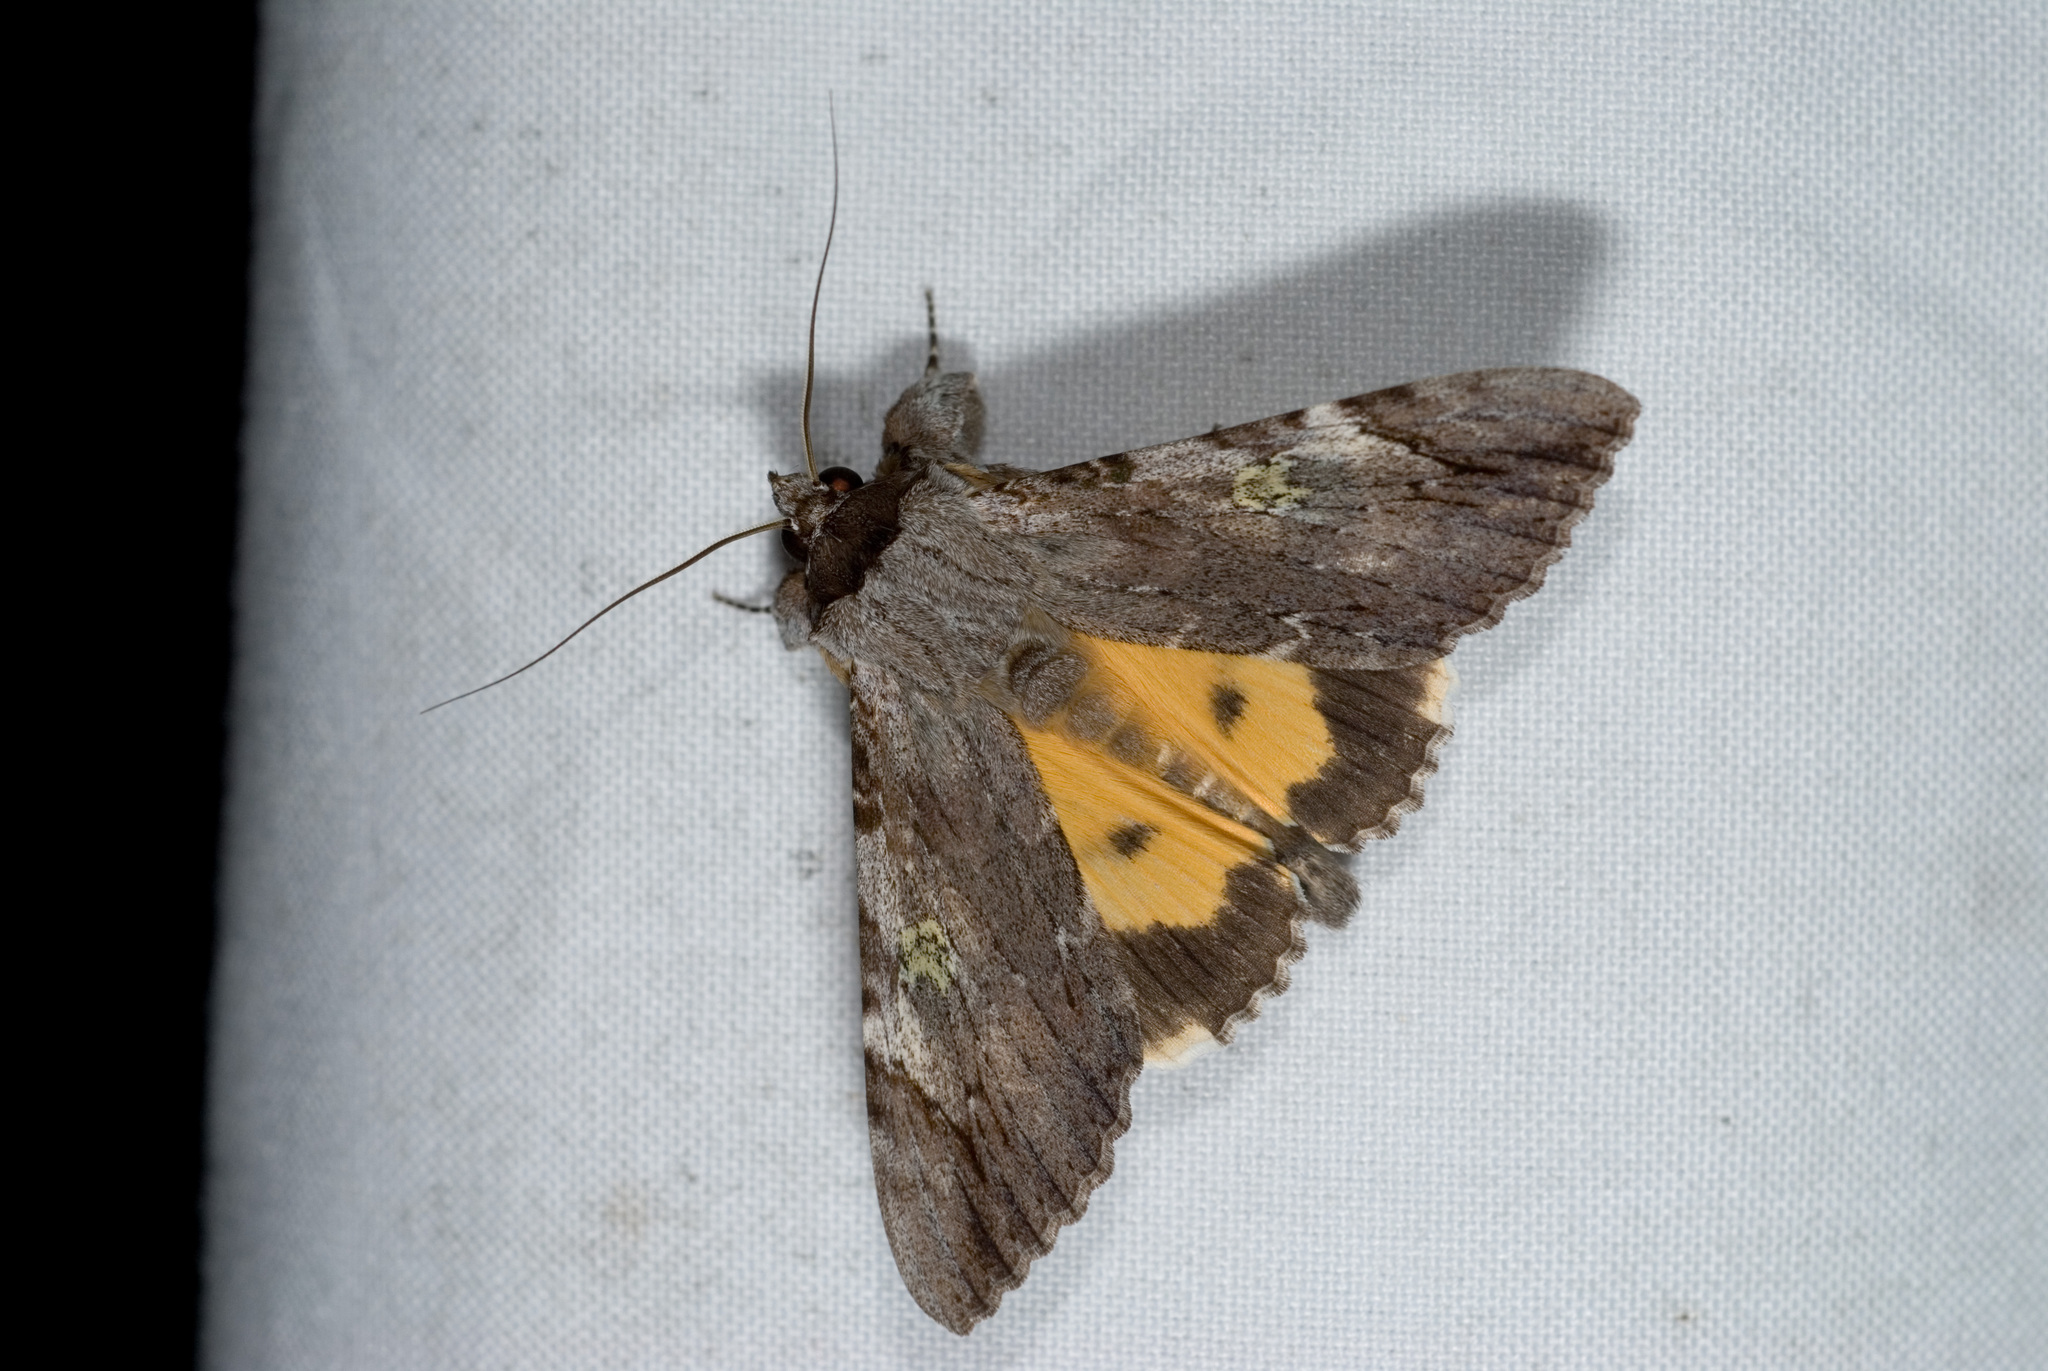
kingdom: Animalia
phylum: Arthropoda
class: Insecta
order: Lepidoptera
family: Erebidae
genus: Catocala
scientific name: Catocala macula
